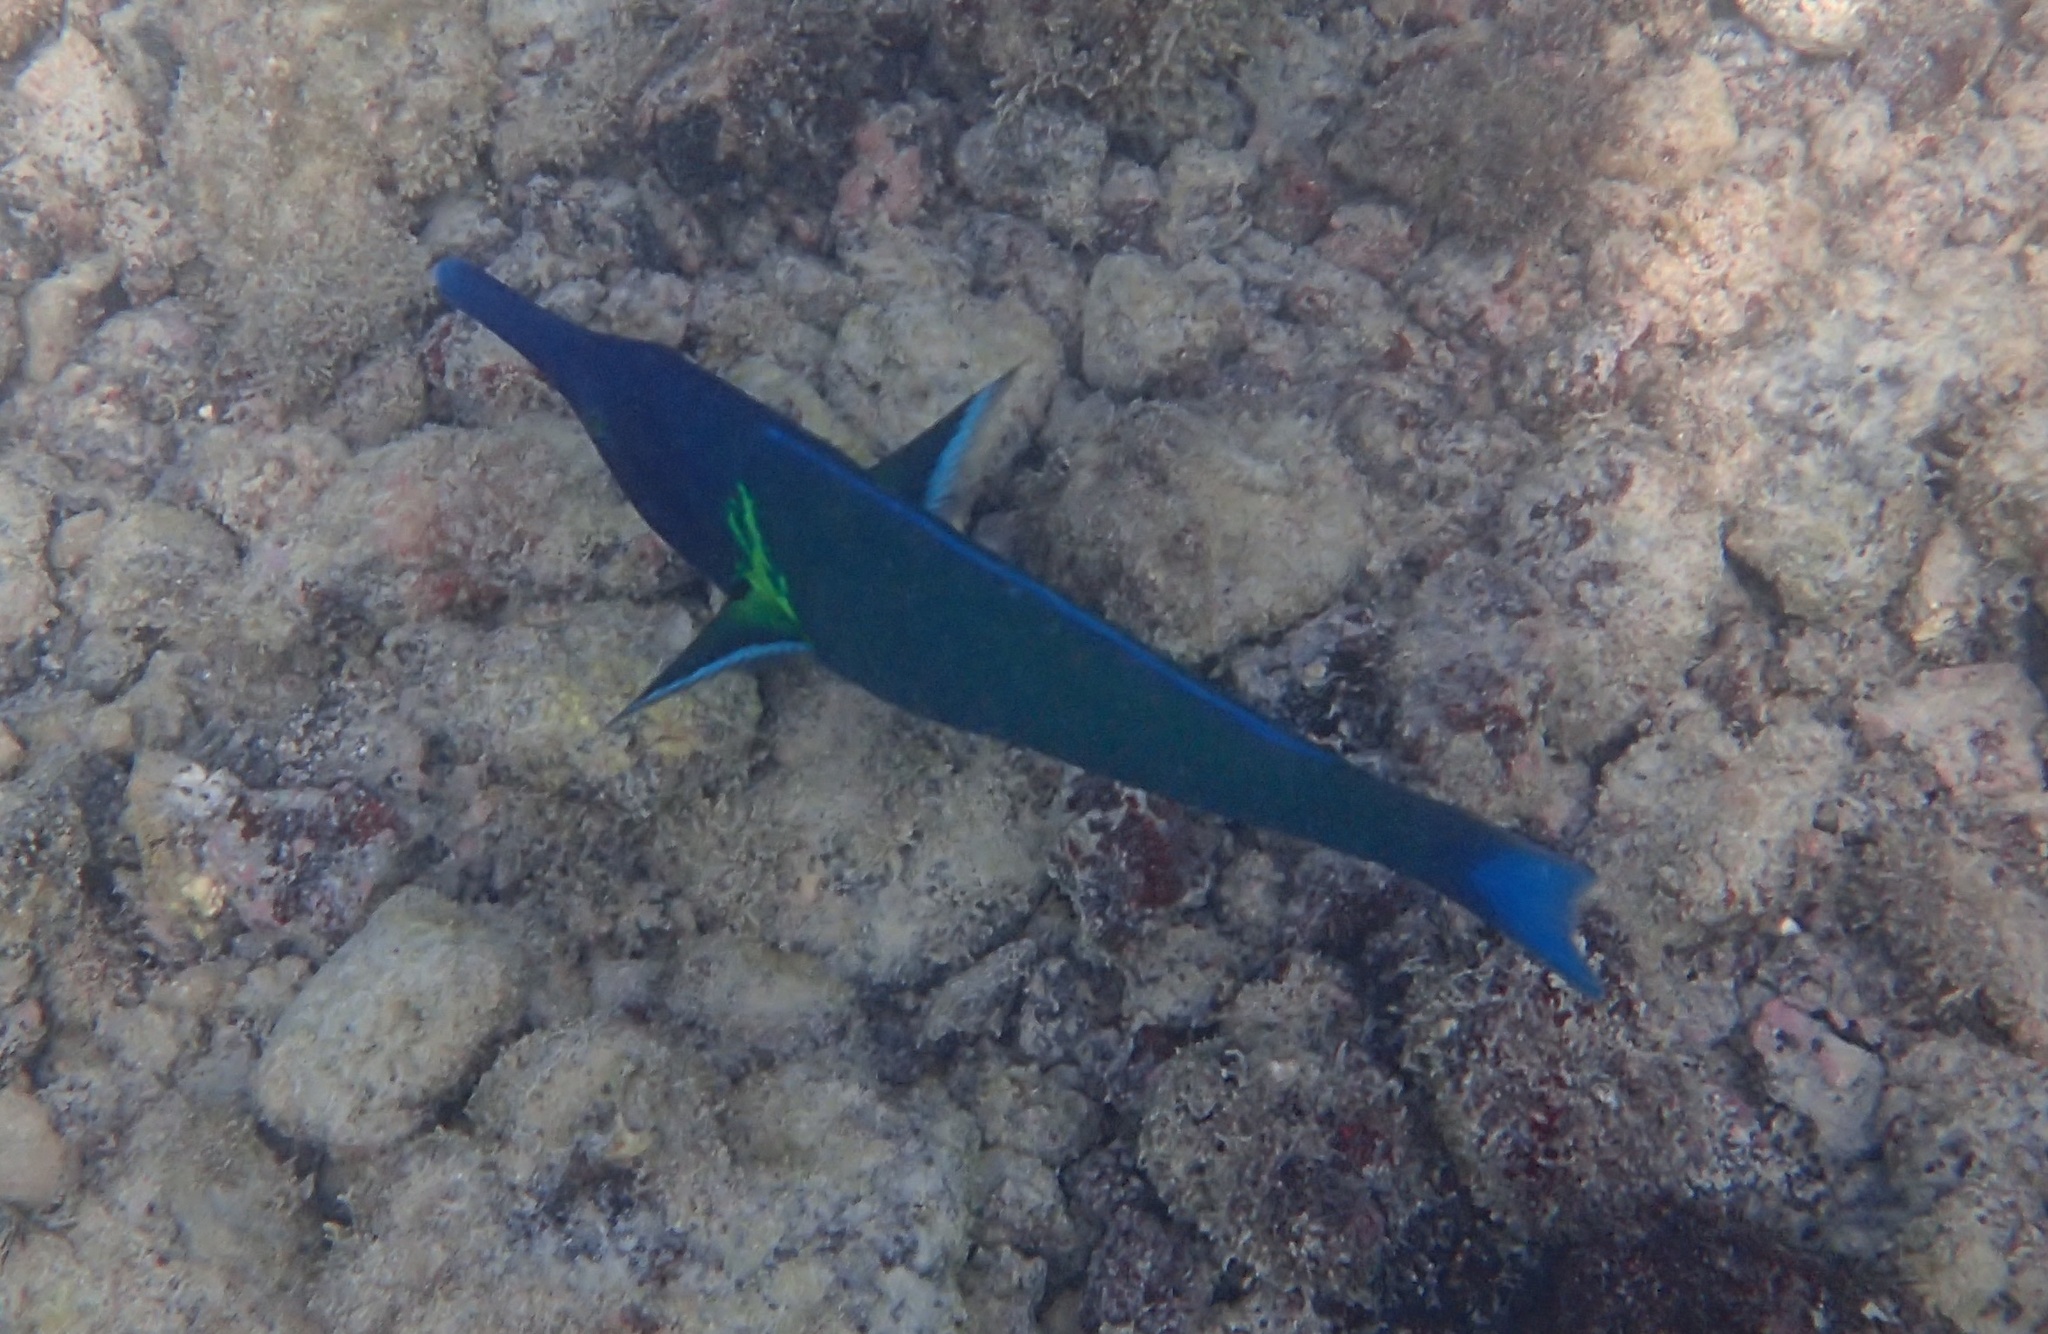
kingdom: Animalia
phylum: Chordata
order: Perciformes
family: Labridae
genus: Gomphosus
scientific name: Gomphosus varius
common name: Bird wrasse
